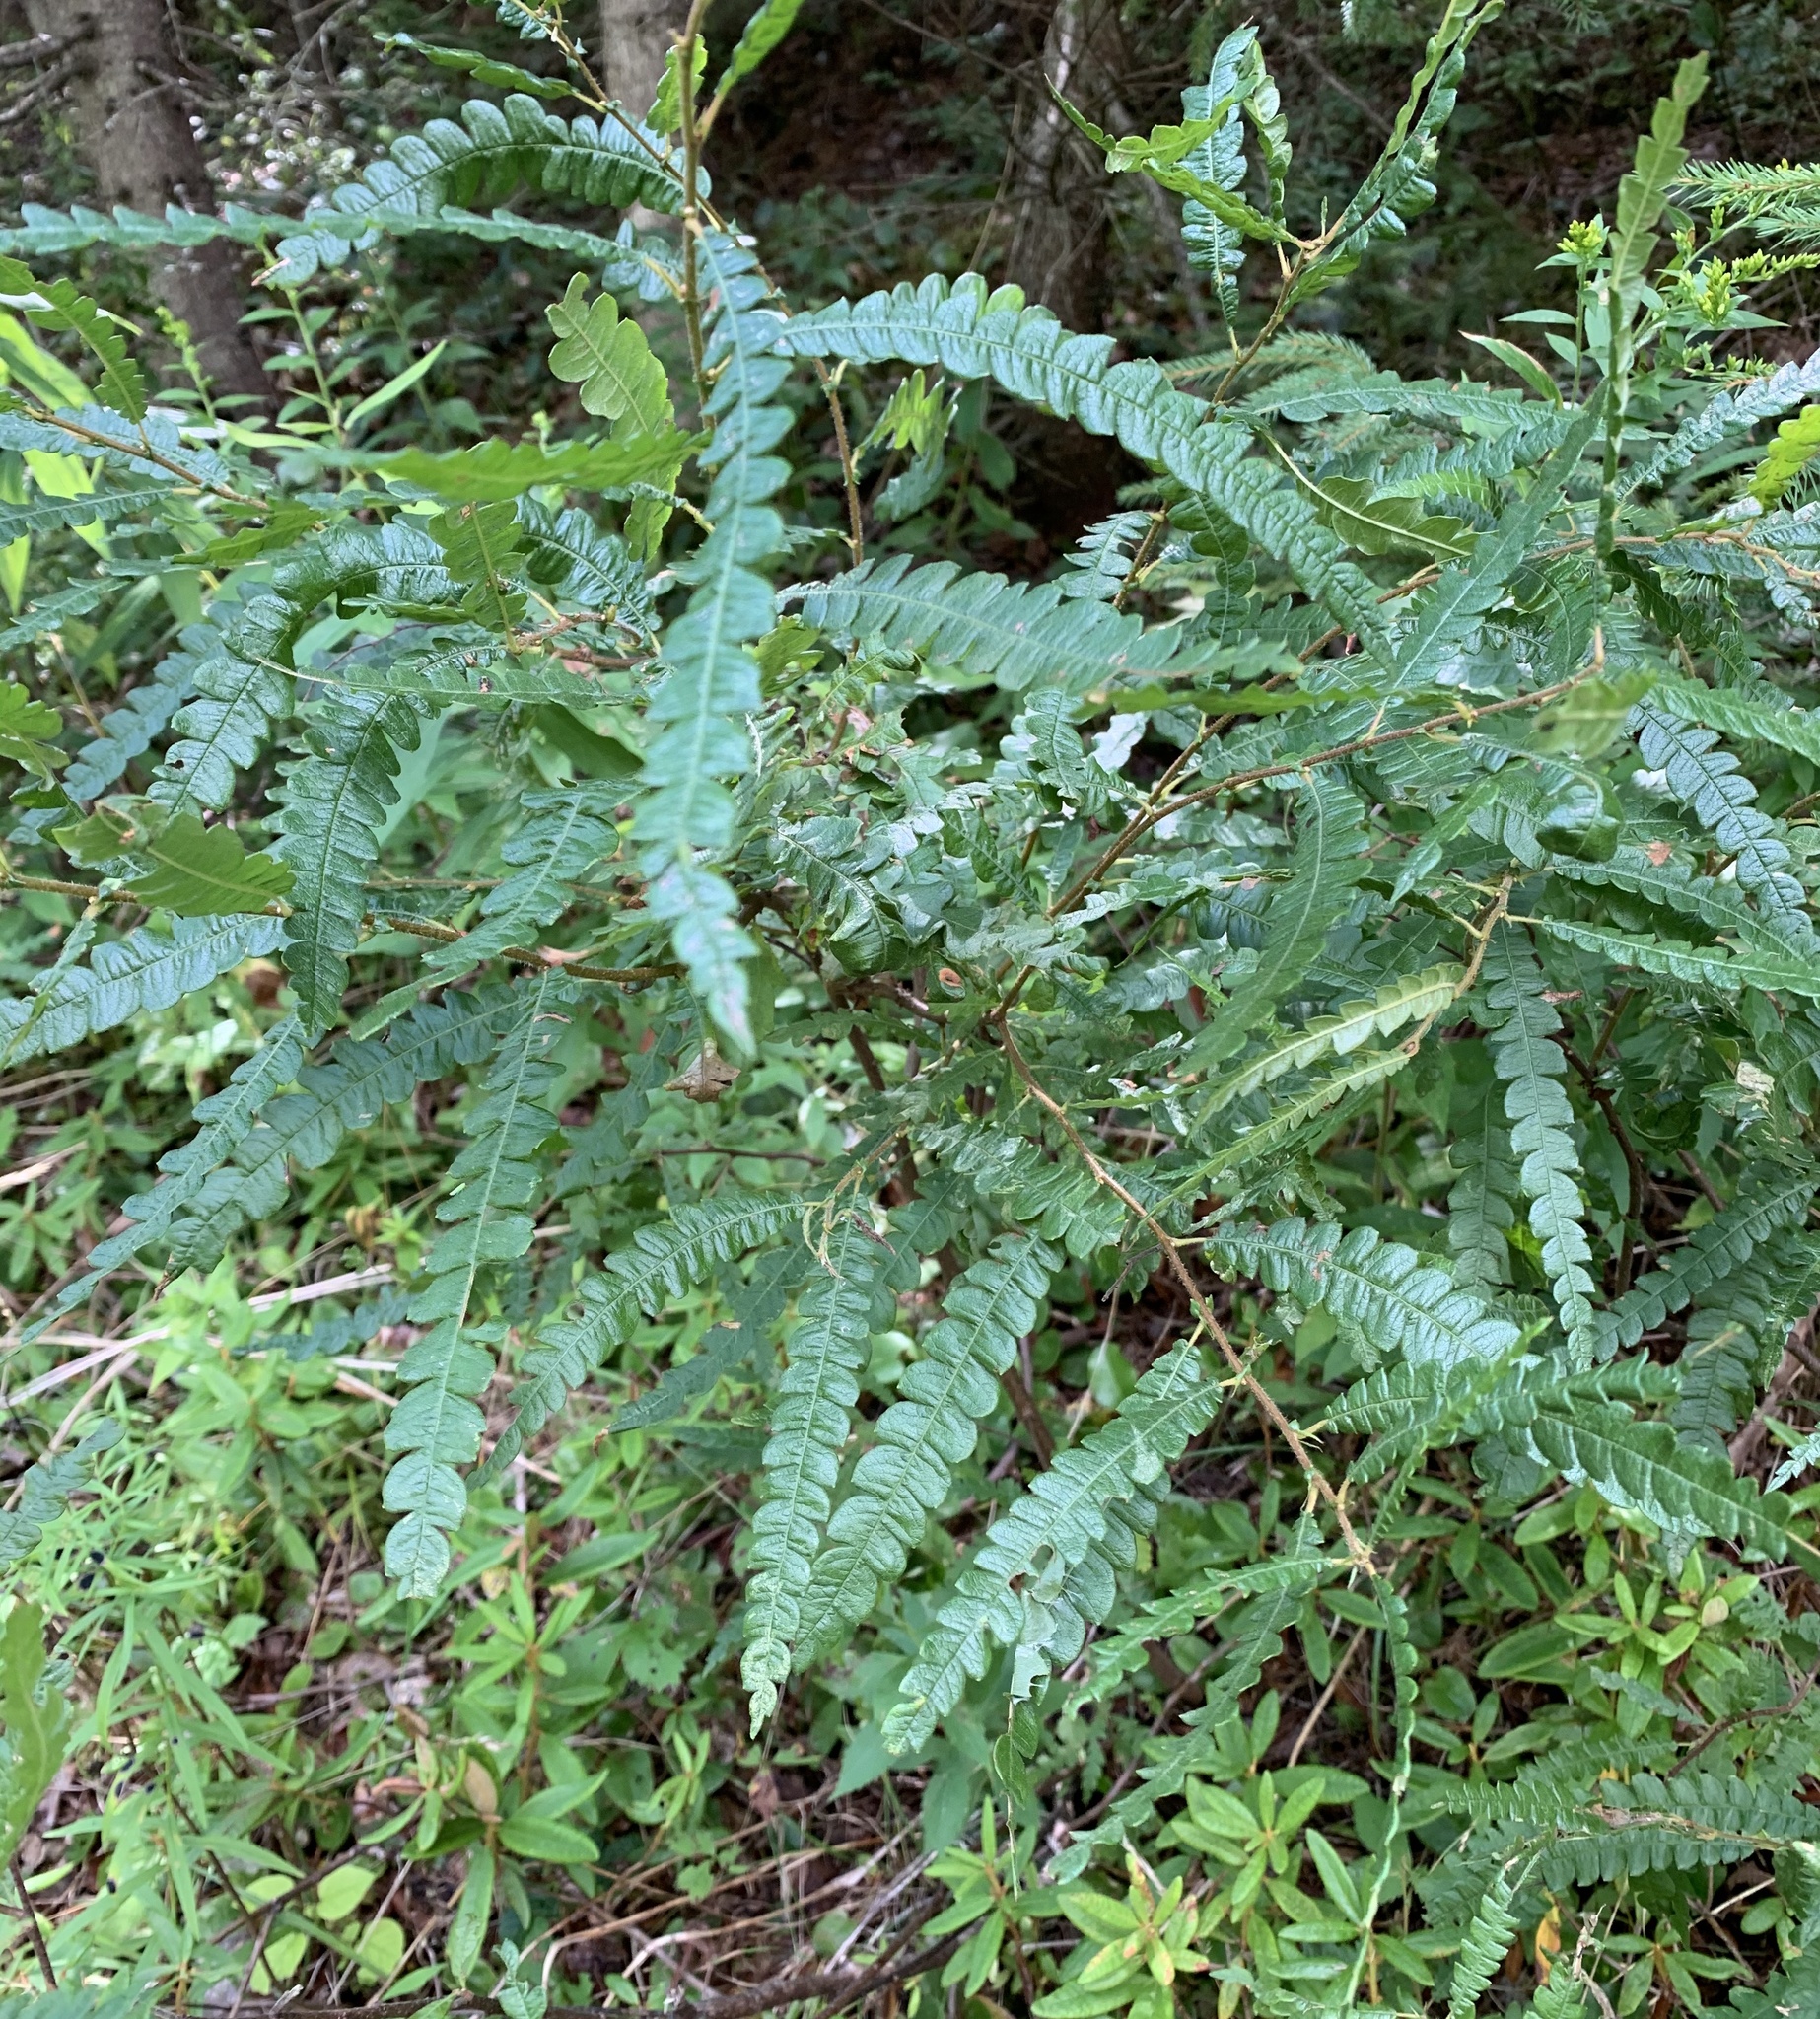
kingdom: Plantae
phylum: Tracheophyta
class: Magnoliopsida
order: Fagales
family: Myricaceae
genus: Comptonia
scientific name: Comptonia peregrina
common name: Sweet-fern
